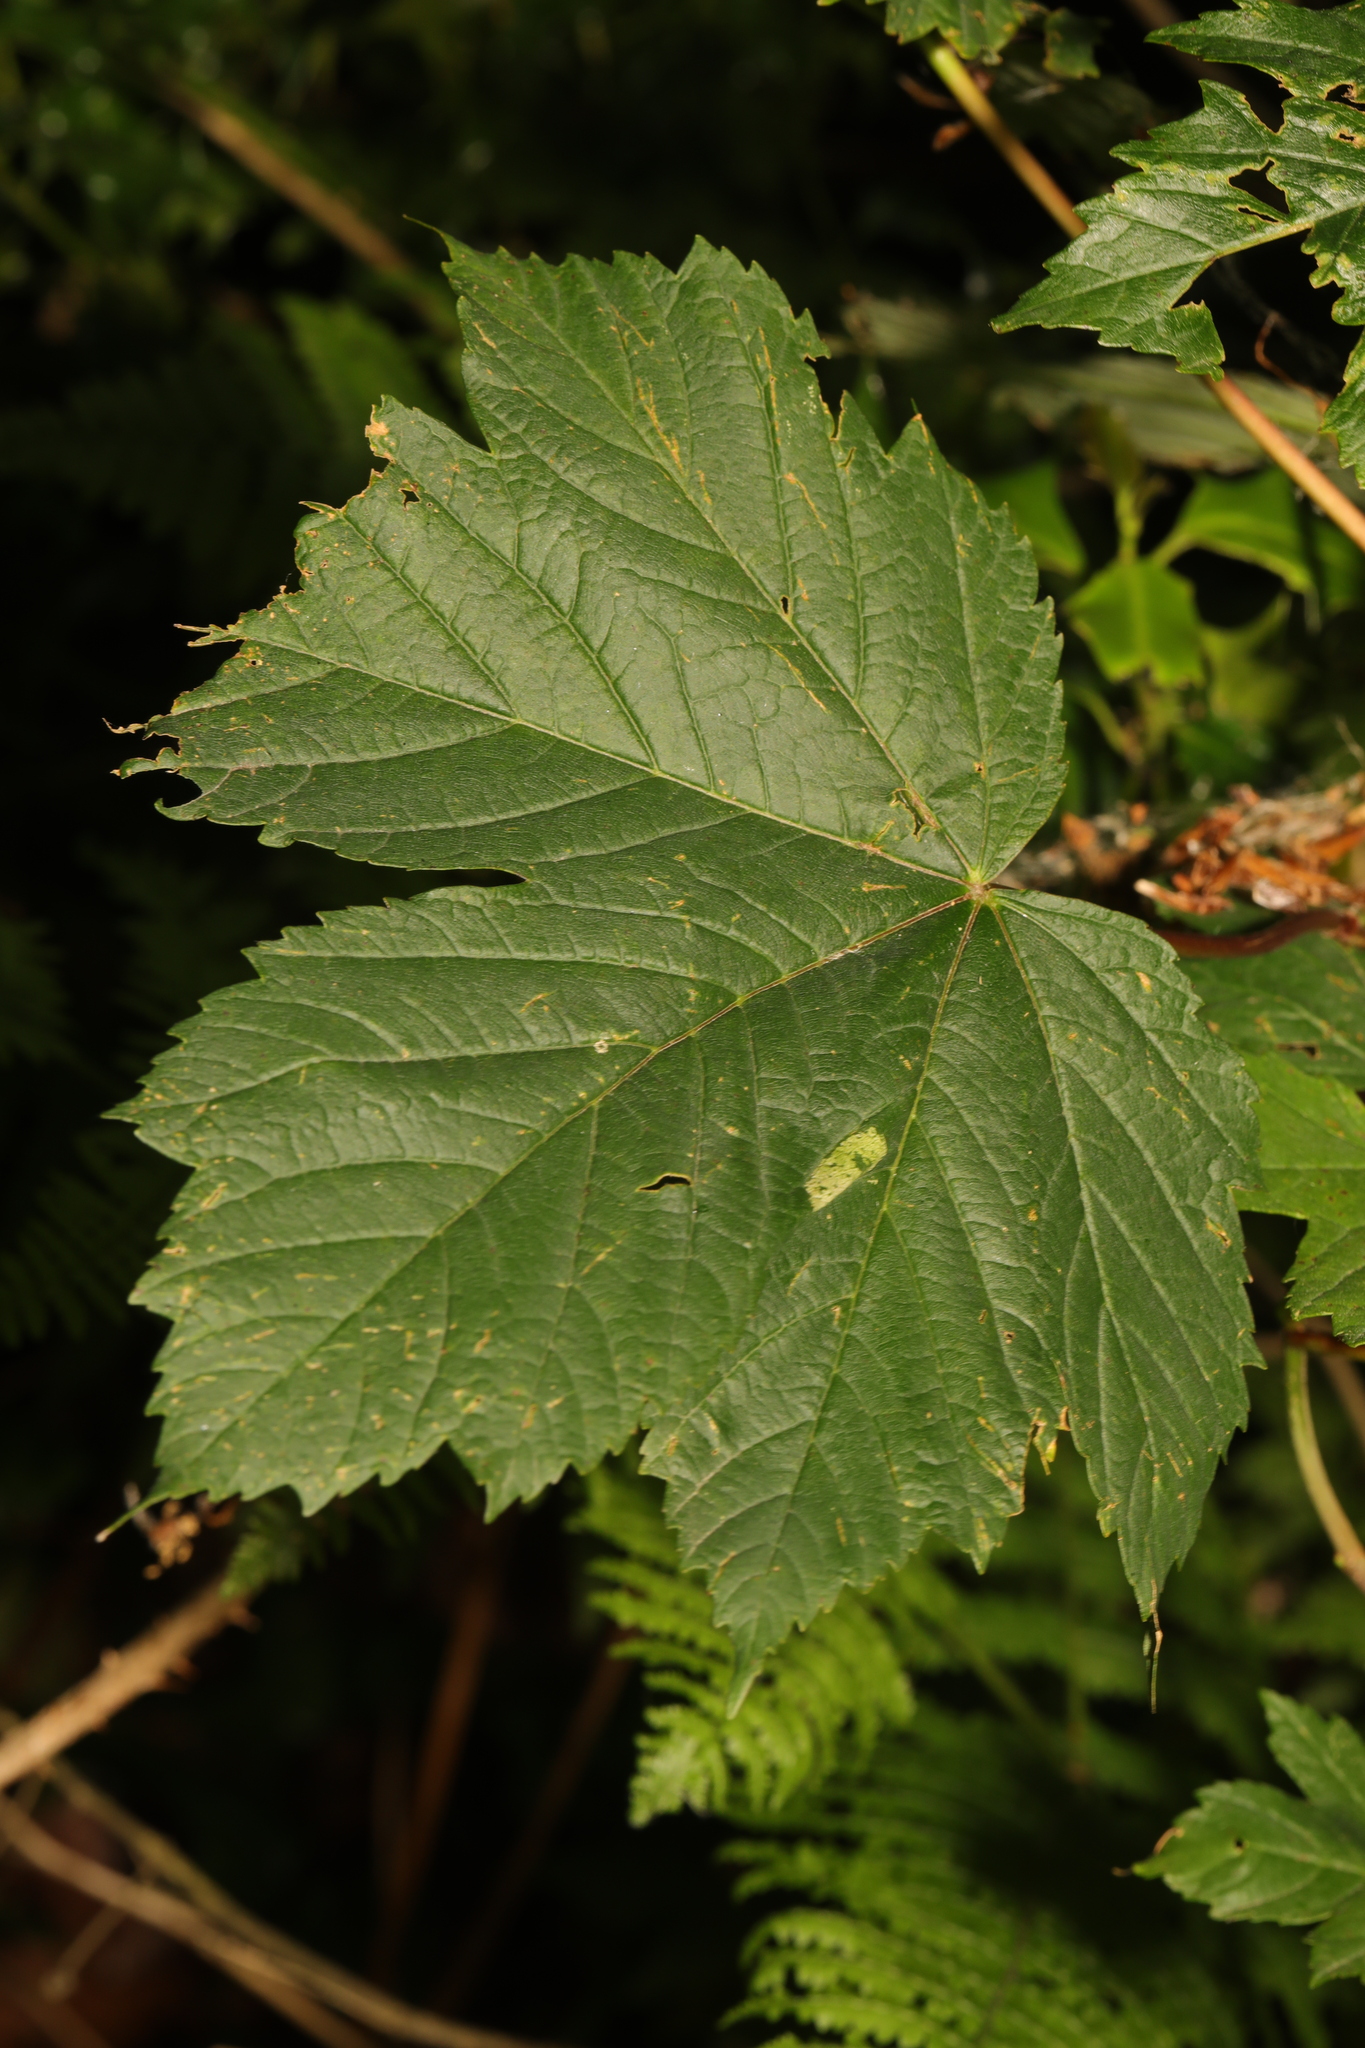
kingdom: Plantae
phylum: Tracheophyta
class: Magnoliopsida
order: Sapindales
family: Sapindaceae
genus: Acer
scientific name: Acer pseudoplatanus
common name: Sycamore
